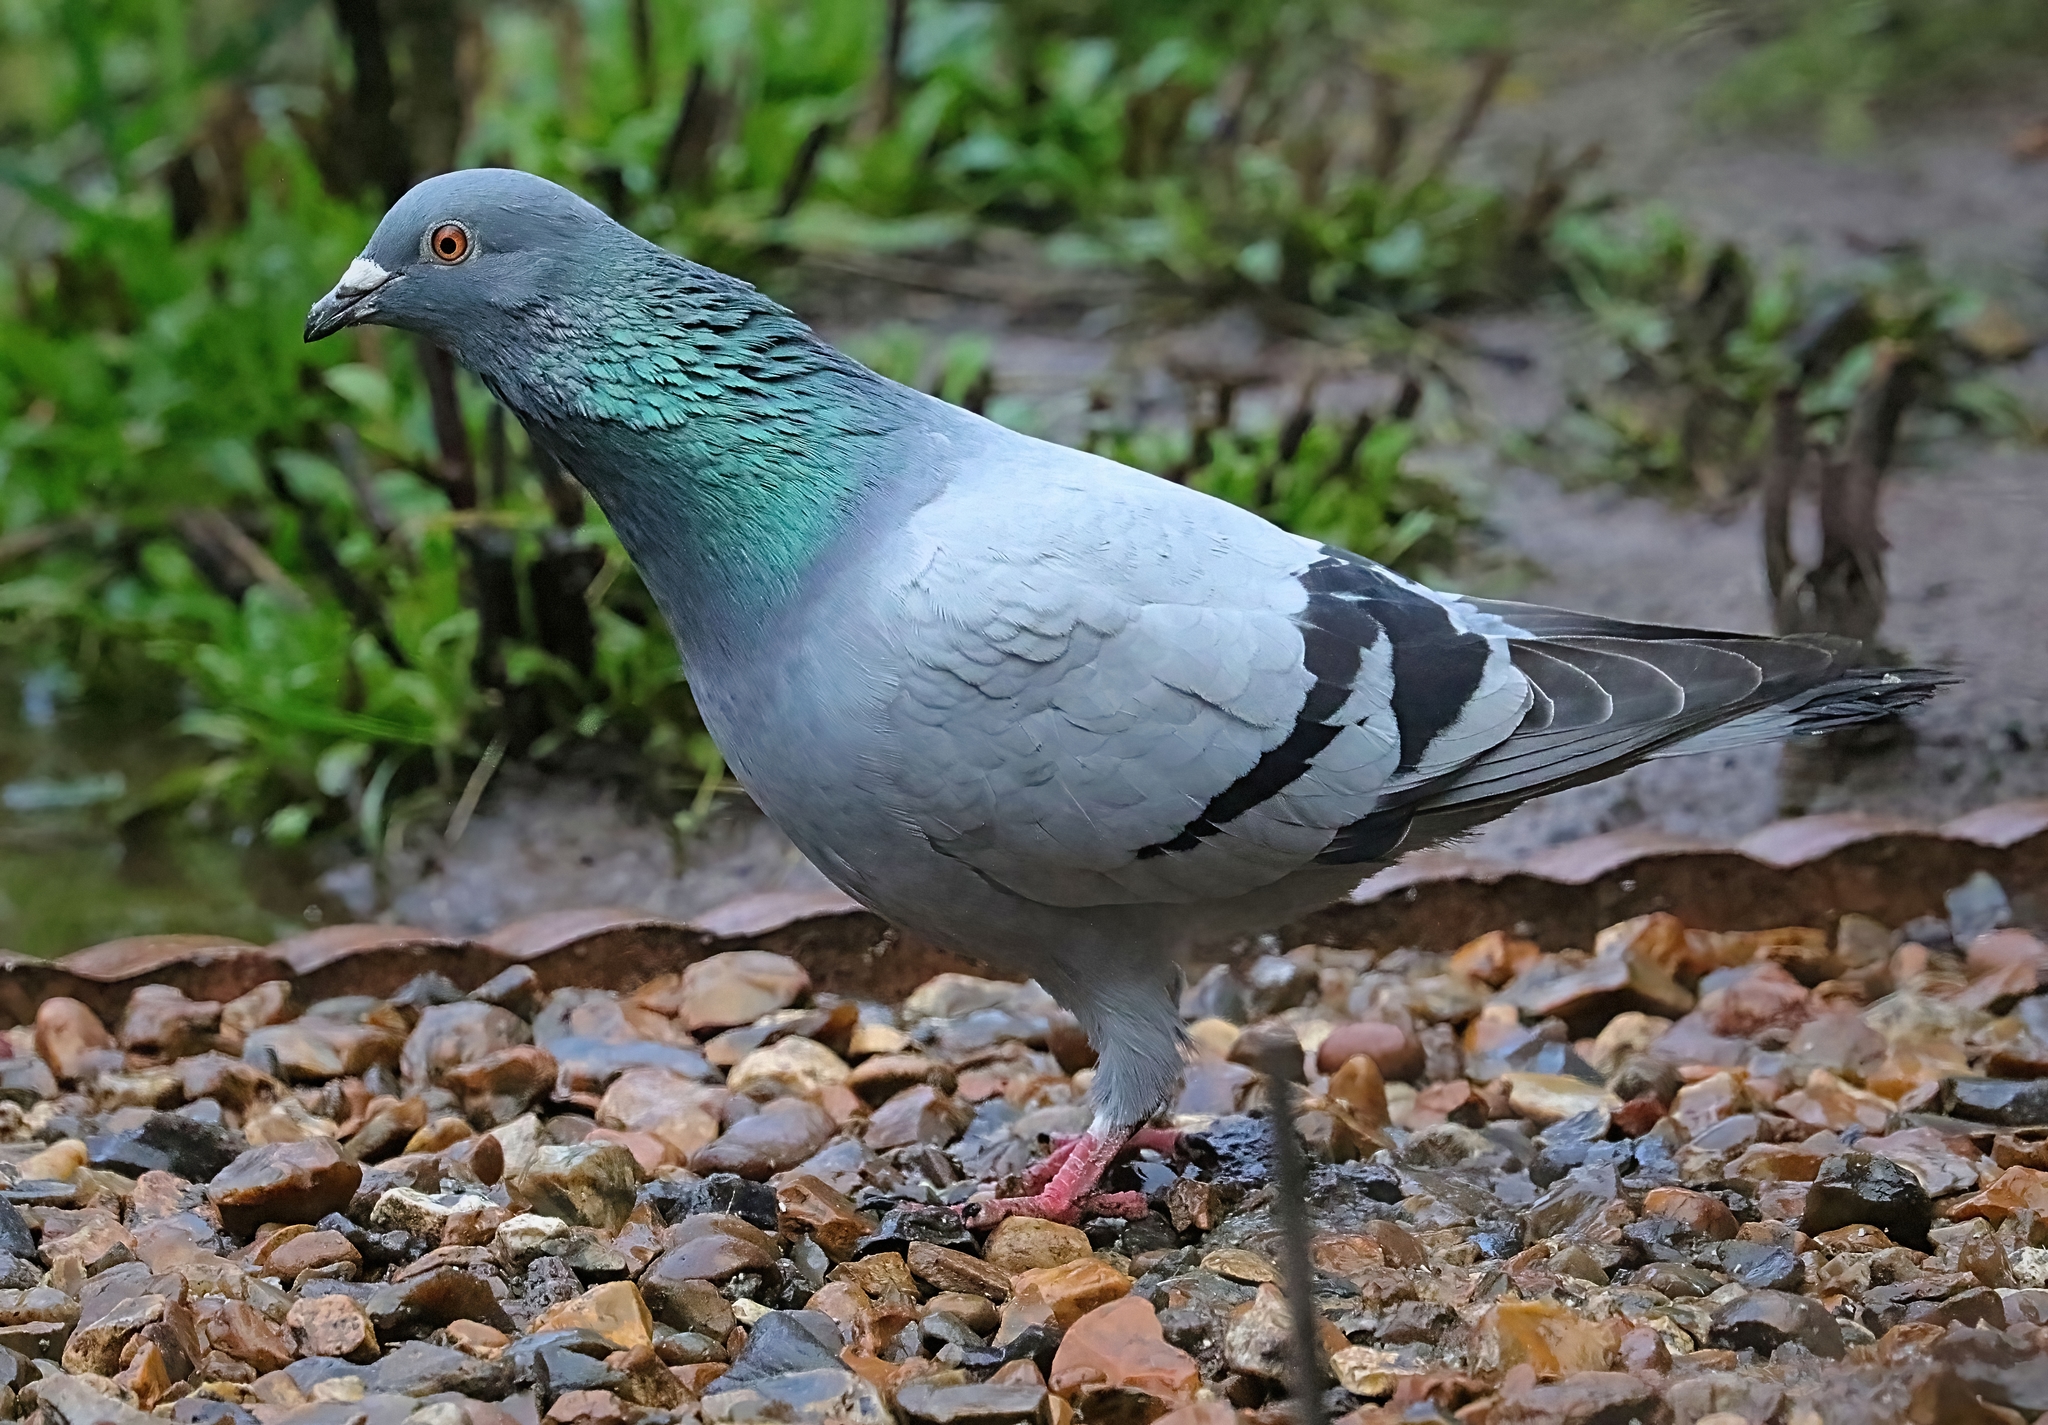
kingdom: Animalia
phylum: Chordata
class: Aves
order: Columbiformes
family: Columbidae
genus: Columba
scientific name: Columba livia
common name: Rock pigeon
